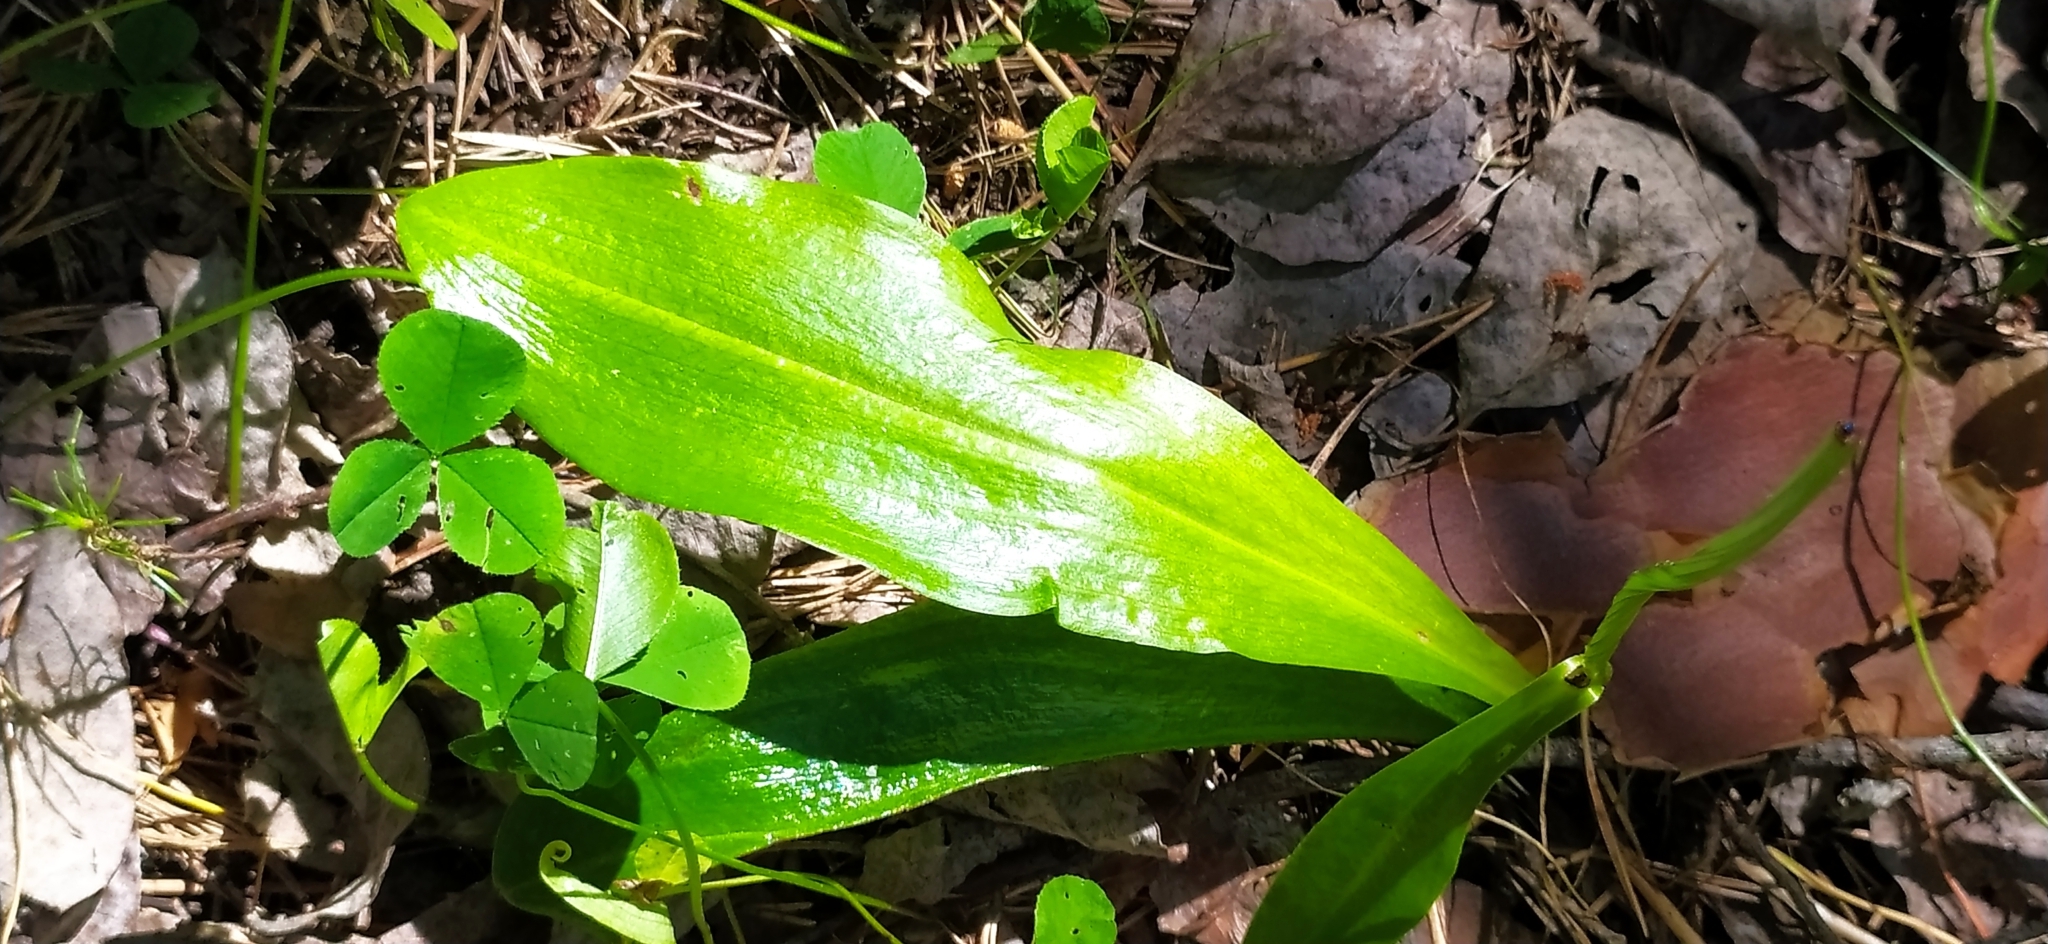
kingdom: Plantae
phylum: Tracheophyta
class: Liliopsida
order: Asparagales
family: Orchidaceae
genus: Platanthera
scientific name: Platanthera bifolia
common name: Lesser butterfly-orchid
